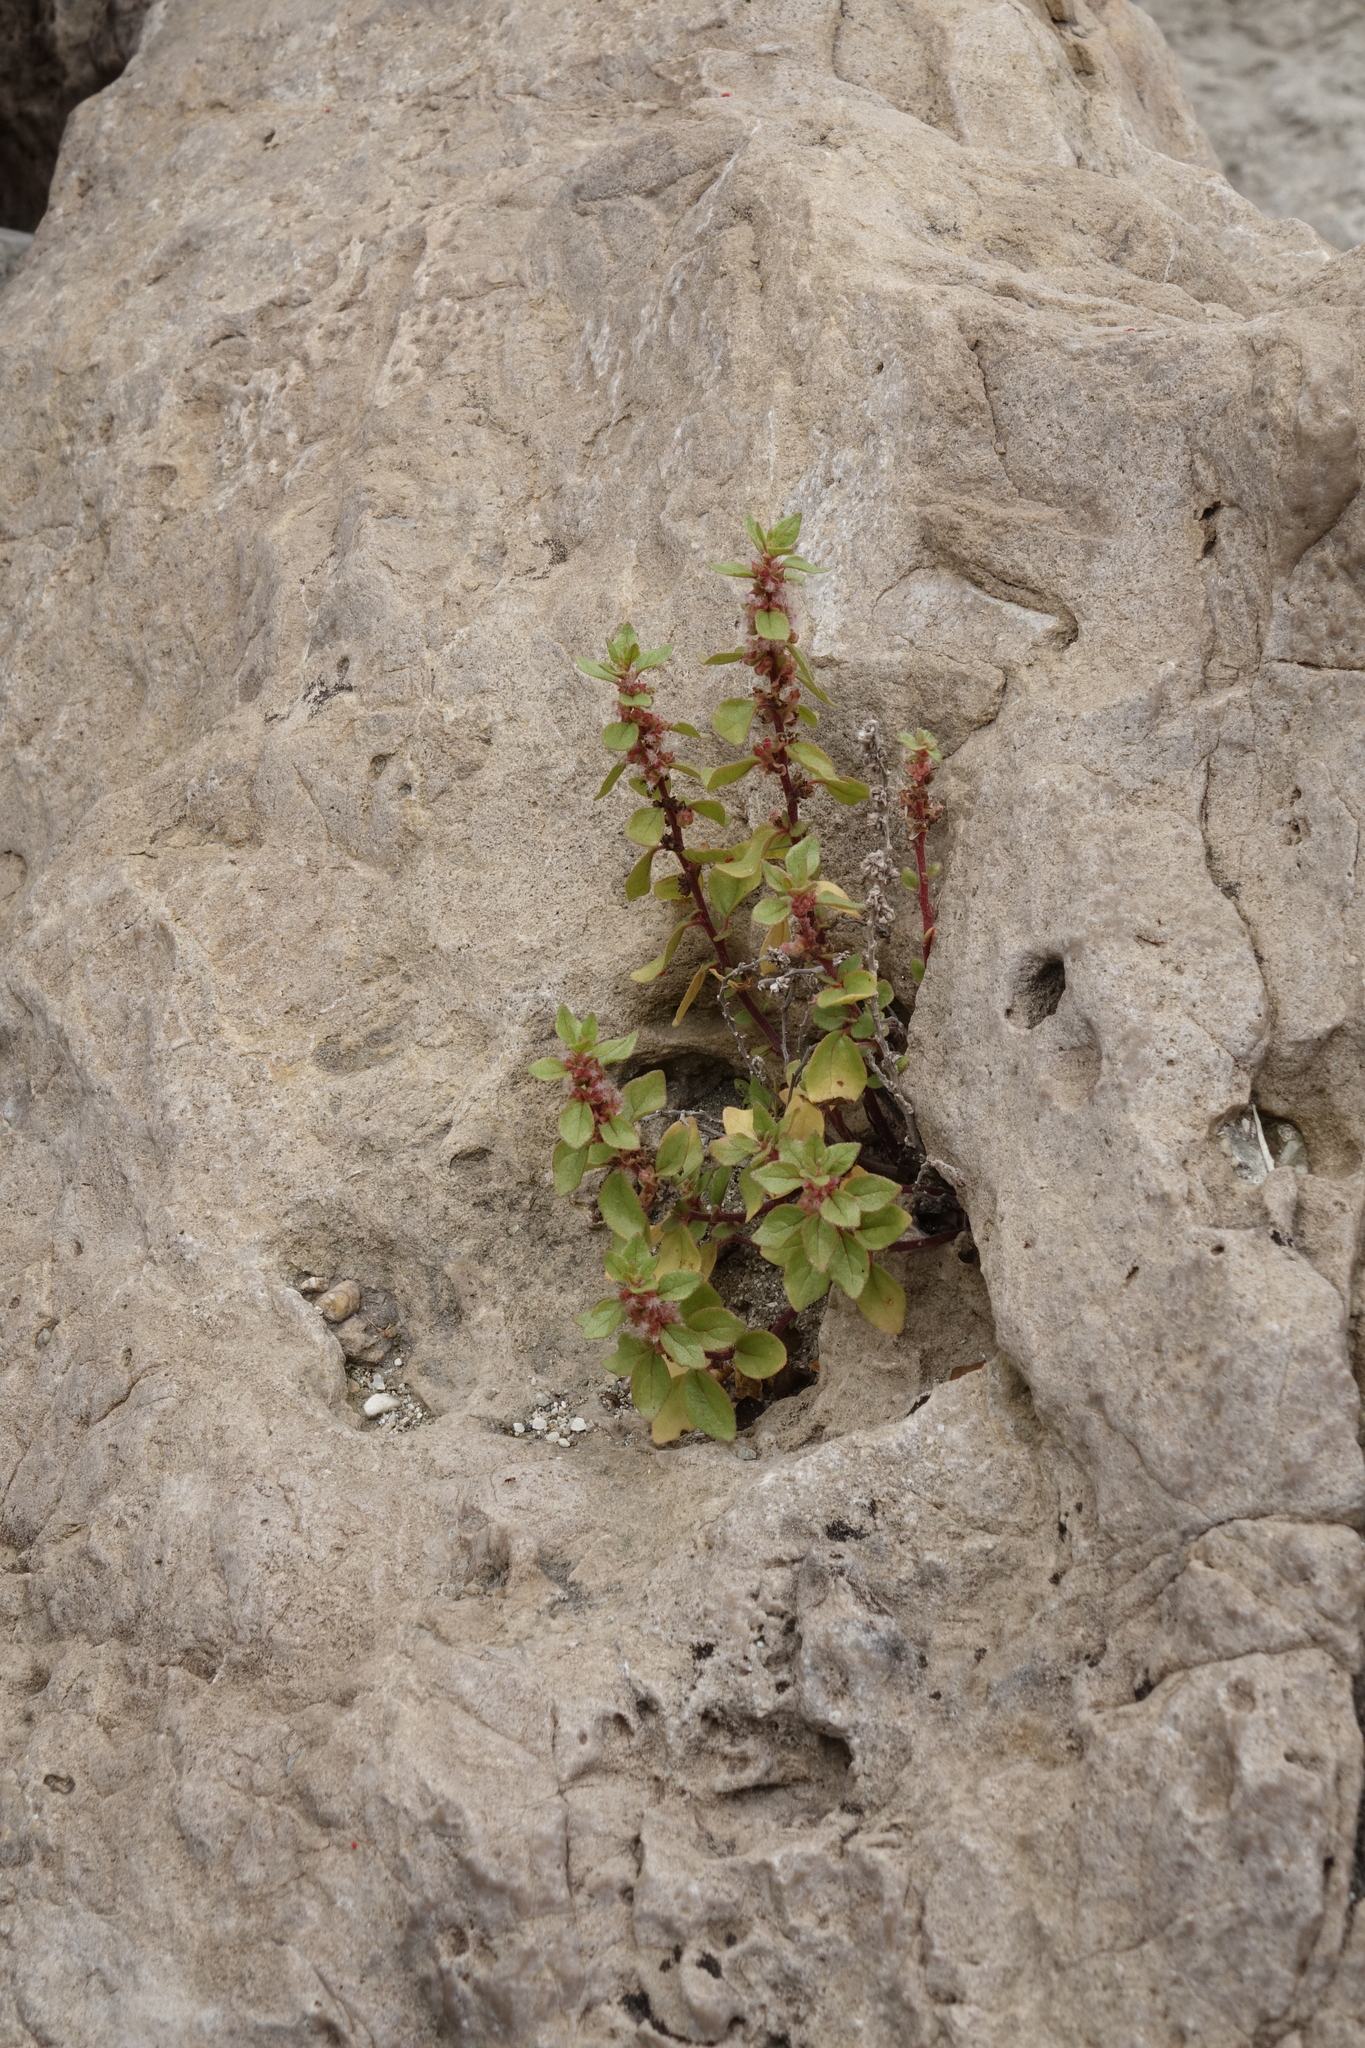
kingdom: Plantae
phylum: Tracheophyta
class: Magnoliopsida
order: Rosales
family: Urticaceae
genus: Parietaria
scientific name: Parietaria judaica
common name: Pellitory-of-the-wall
